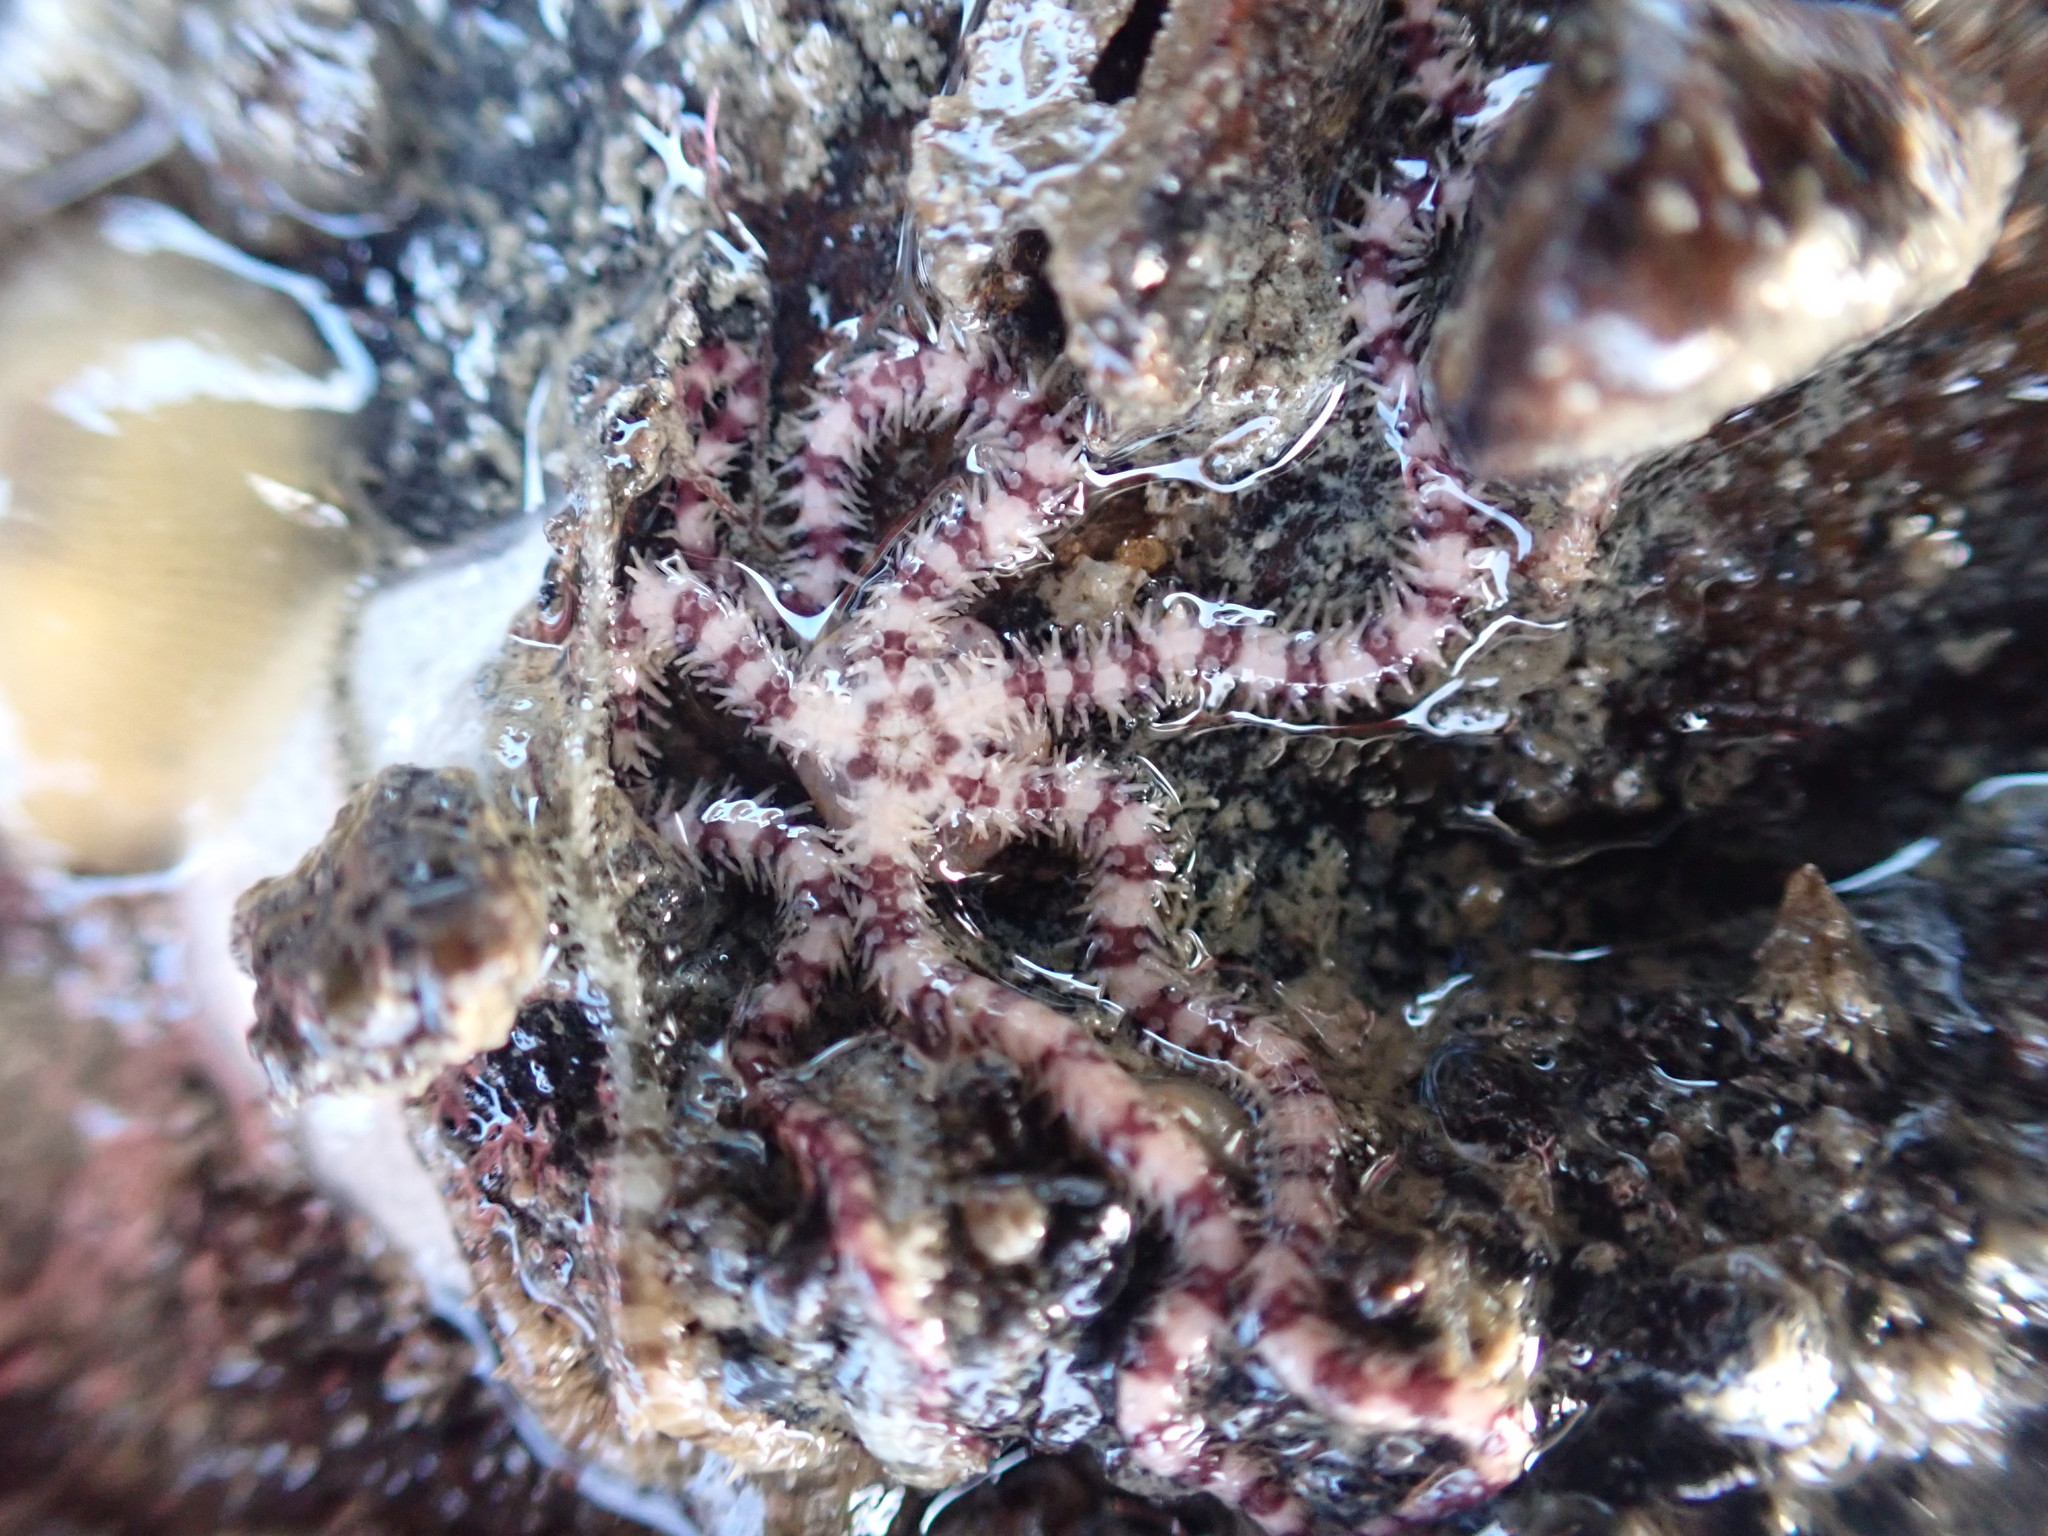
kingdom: Animalia
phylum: Echinodermata
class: Ophiuroidea
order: Amphilepidida
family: Ophionereididae
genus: Ophionereis
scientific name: Ophionereis fasciata
